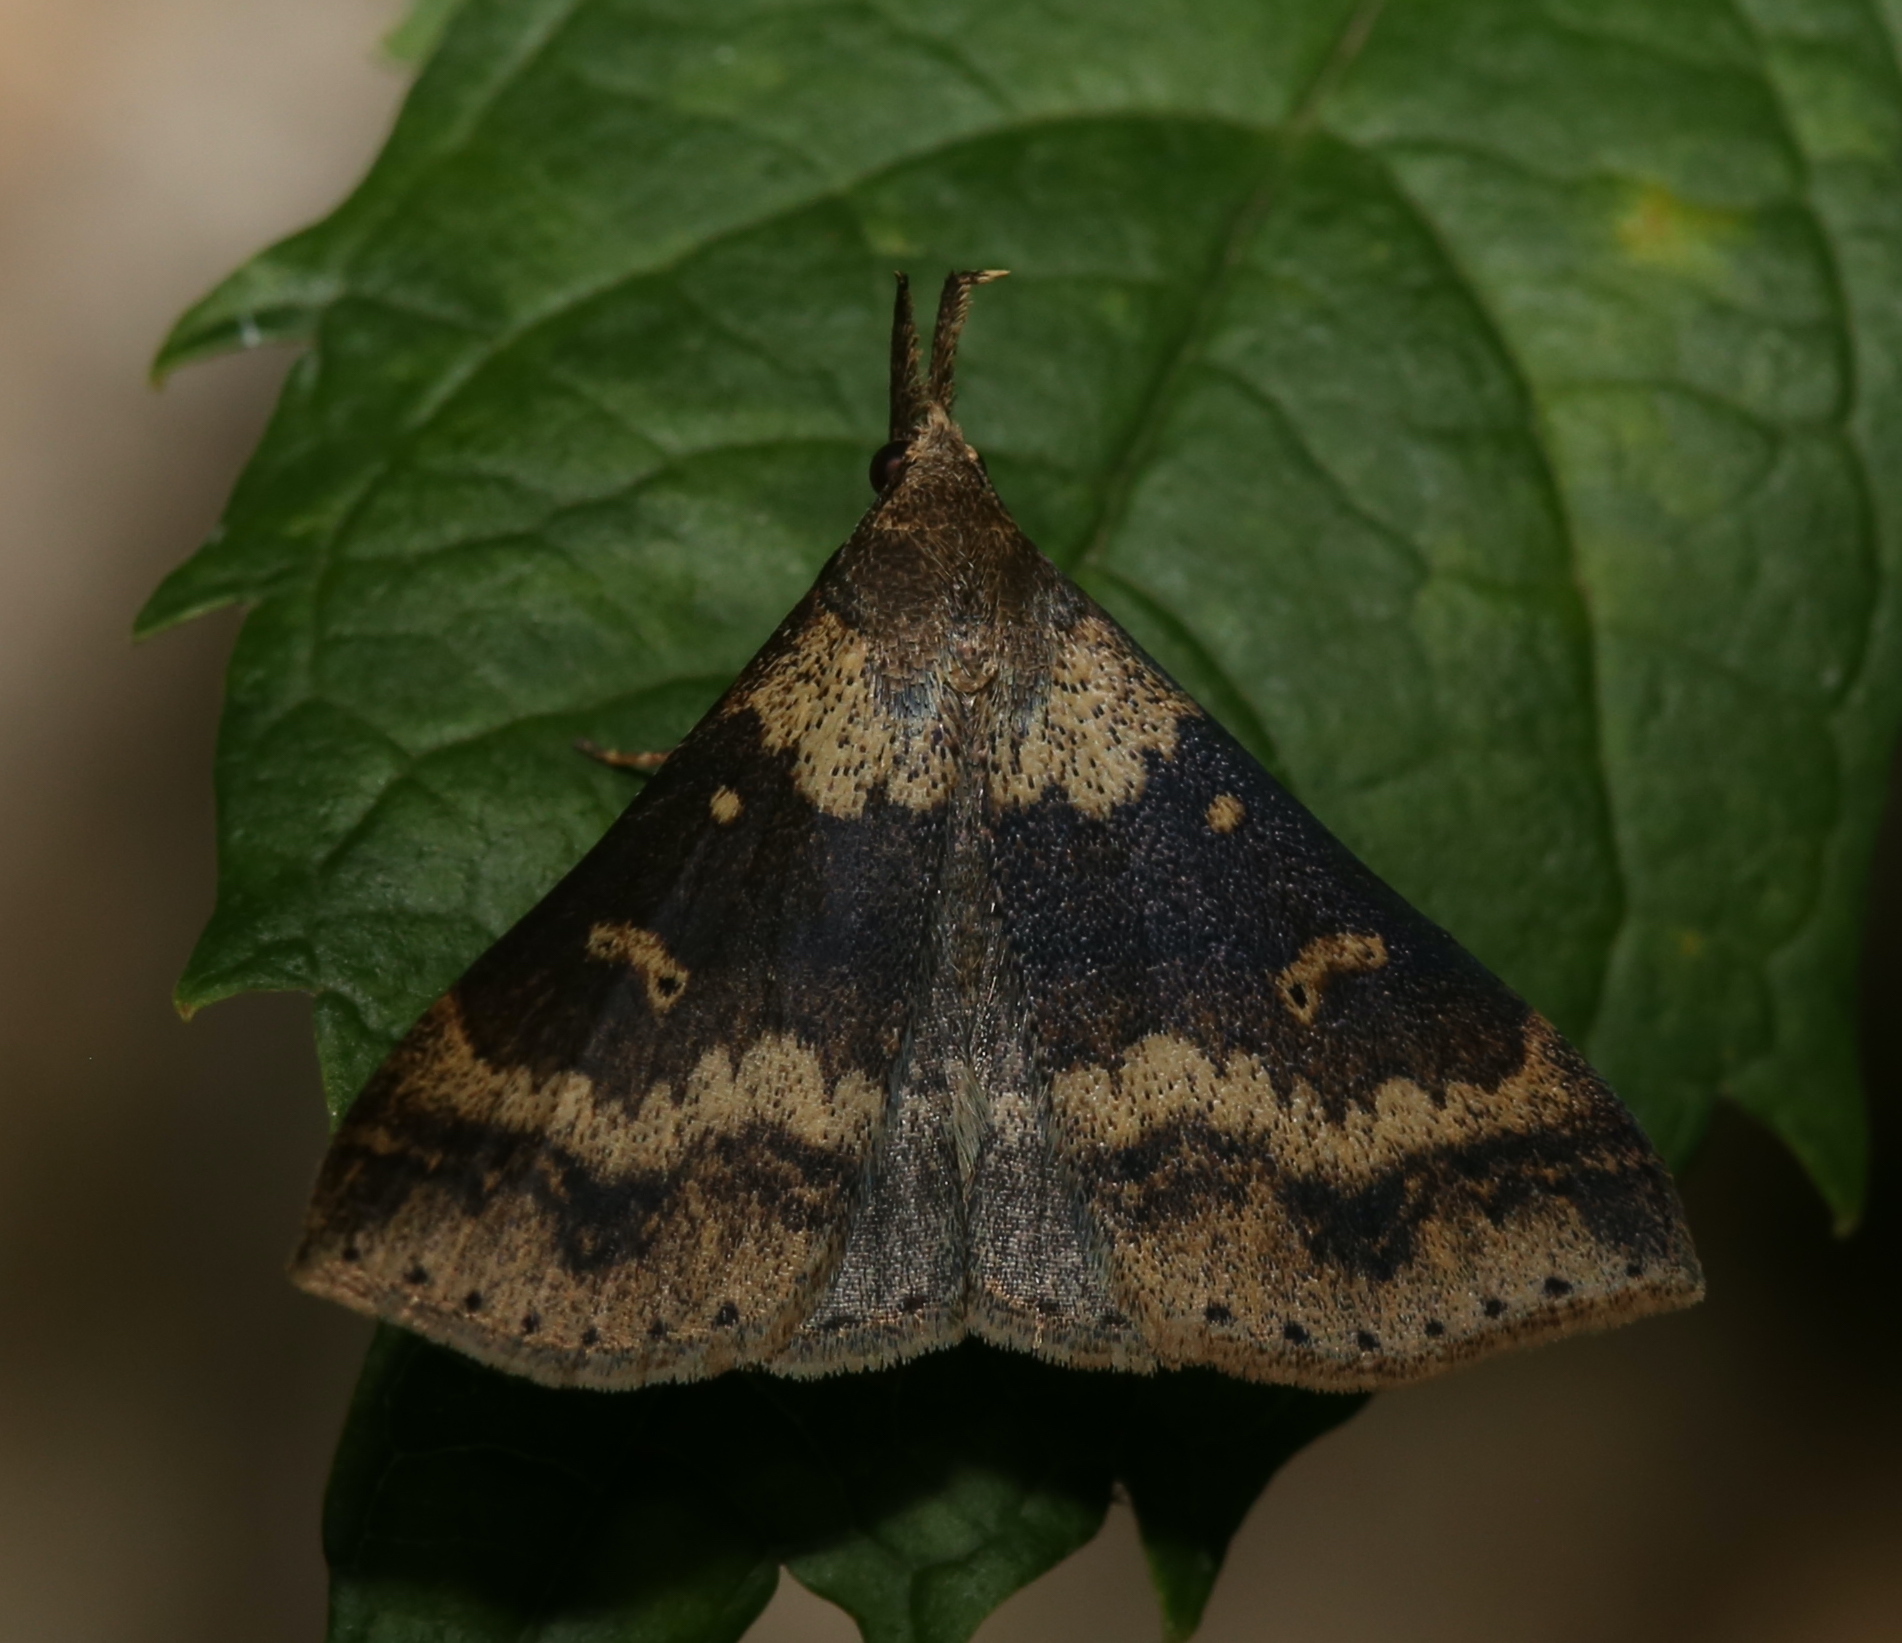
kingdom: Animalia
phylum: Arthropoda
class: Insecta
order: Lepidoptera
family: Erebidae
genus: Renia
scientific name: Renia discoloralis
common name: Discolored renia moth
